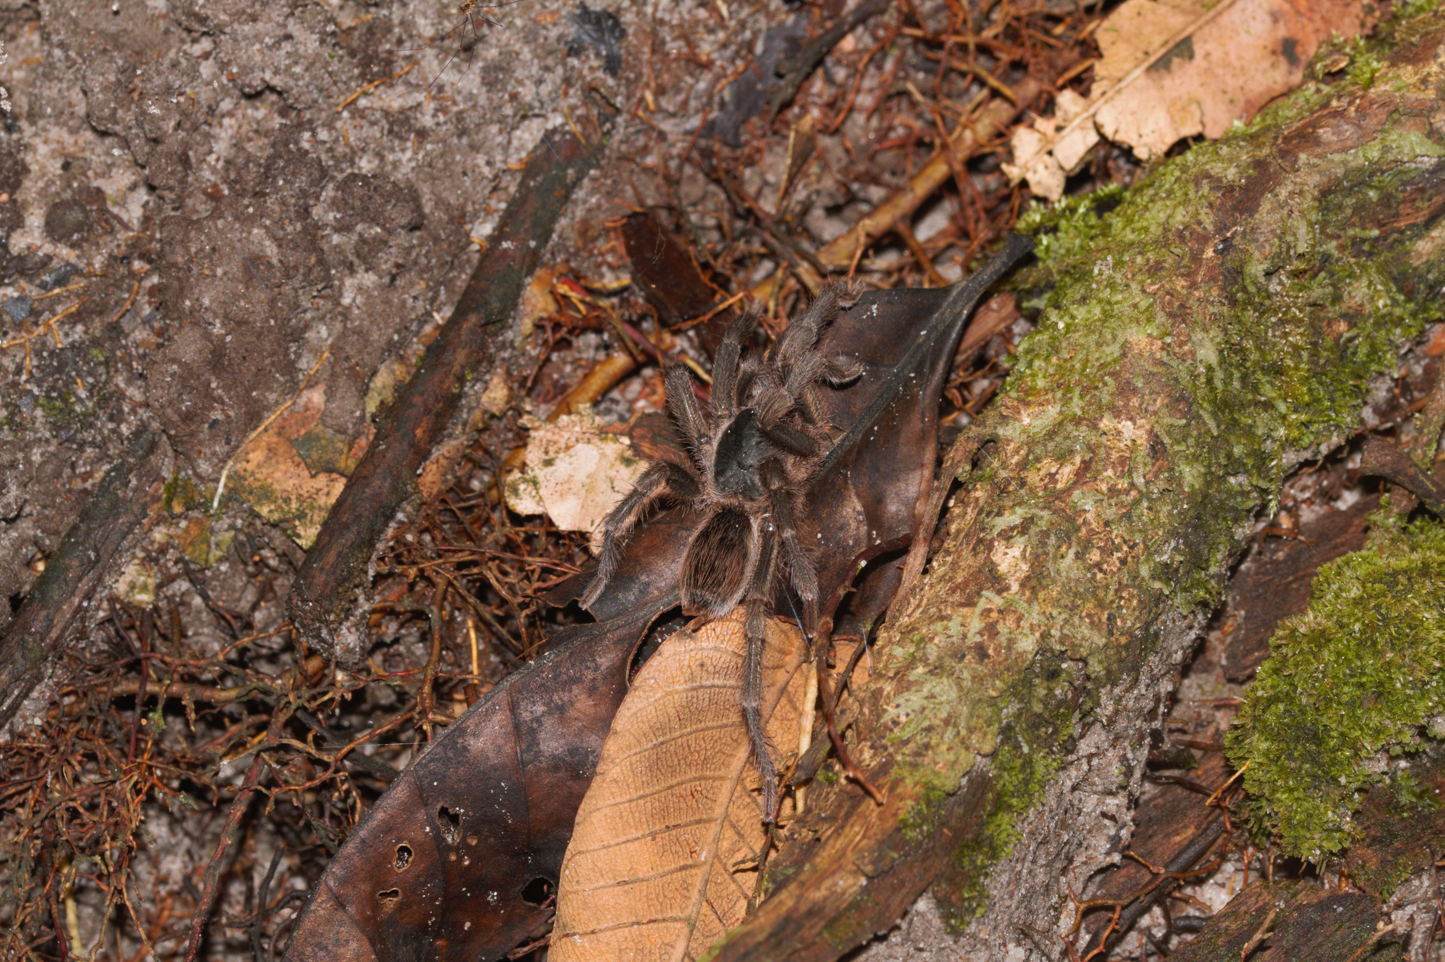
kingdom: Animalia
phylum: Arthropoda
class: Arachnida
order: Araneae
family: Theraphosidae
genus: Neostenotarsus
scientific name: Neostenotarsus guianensis
